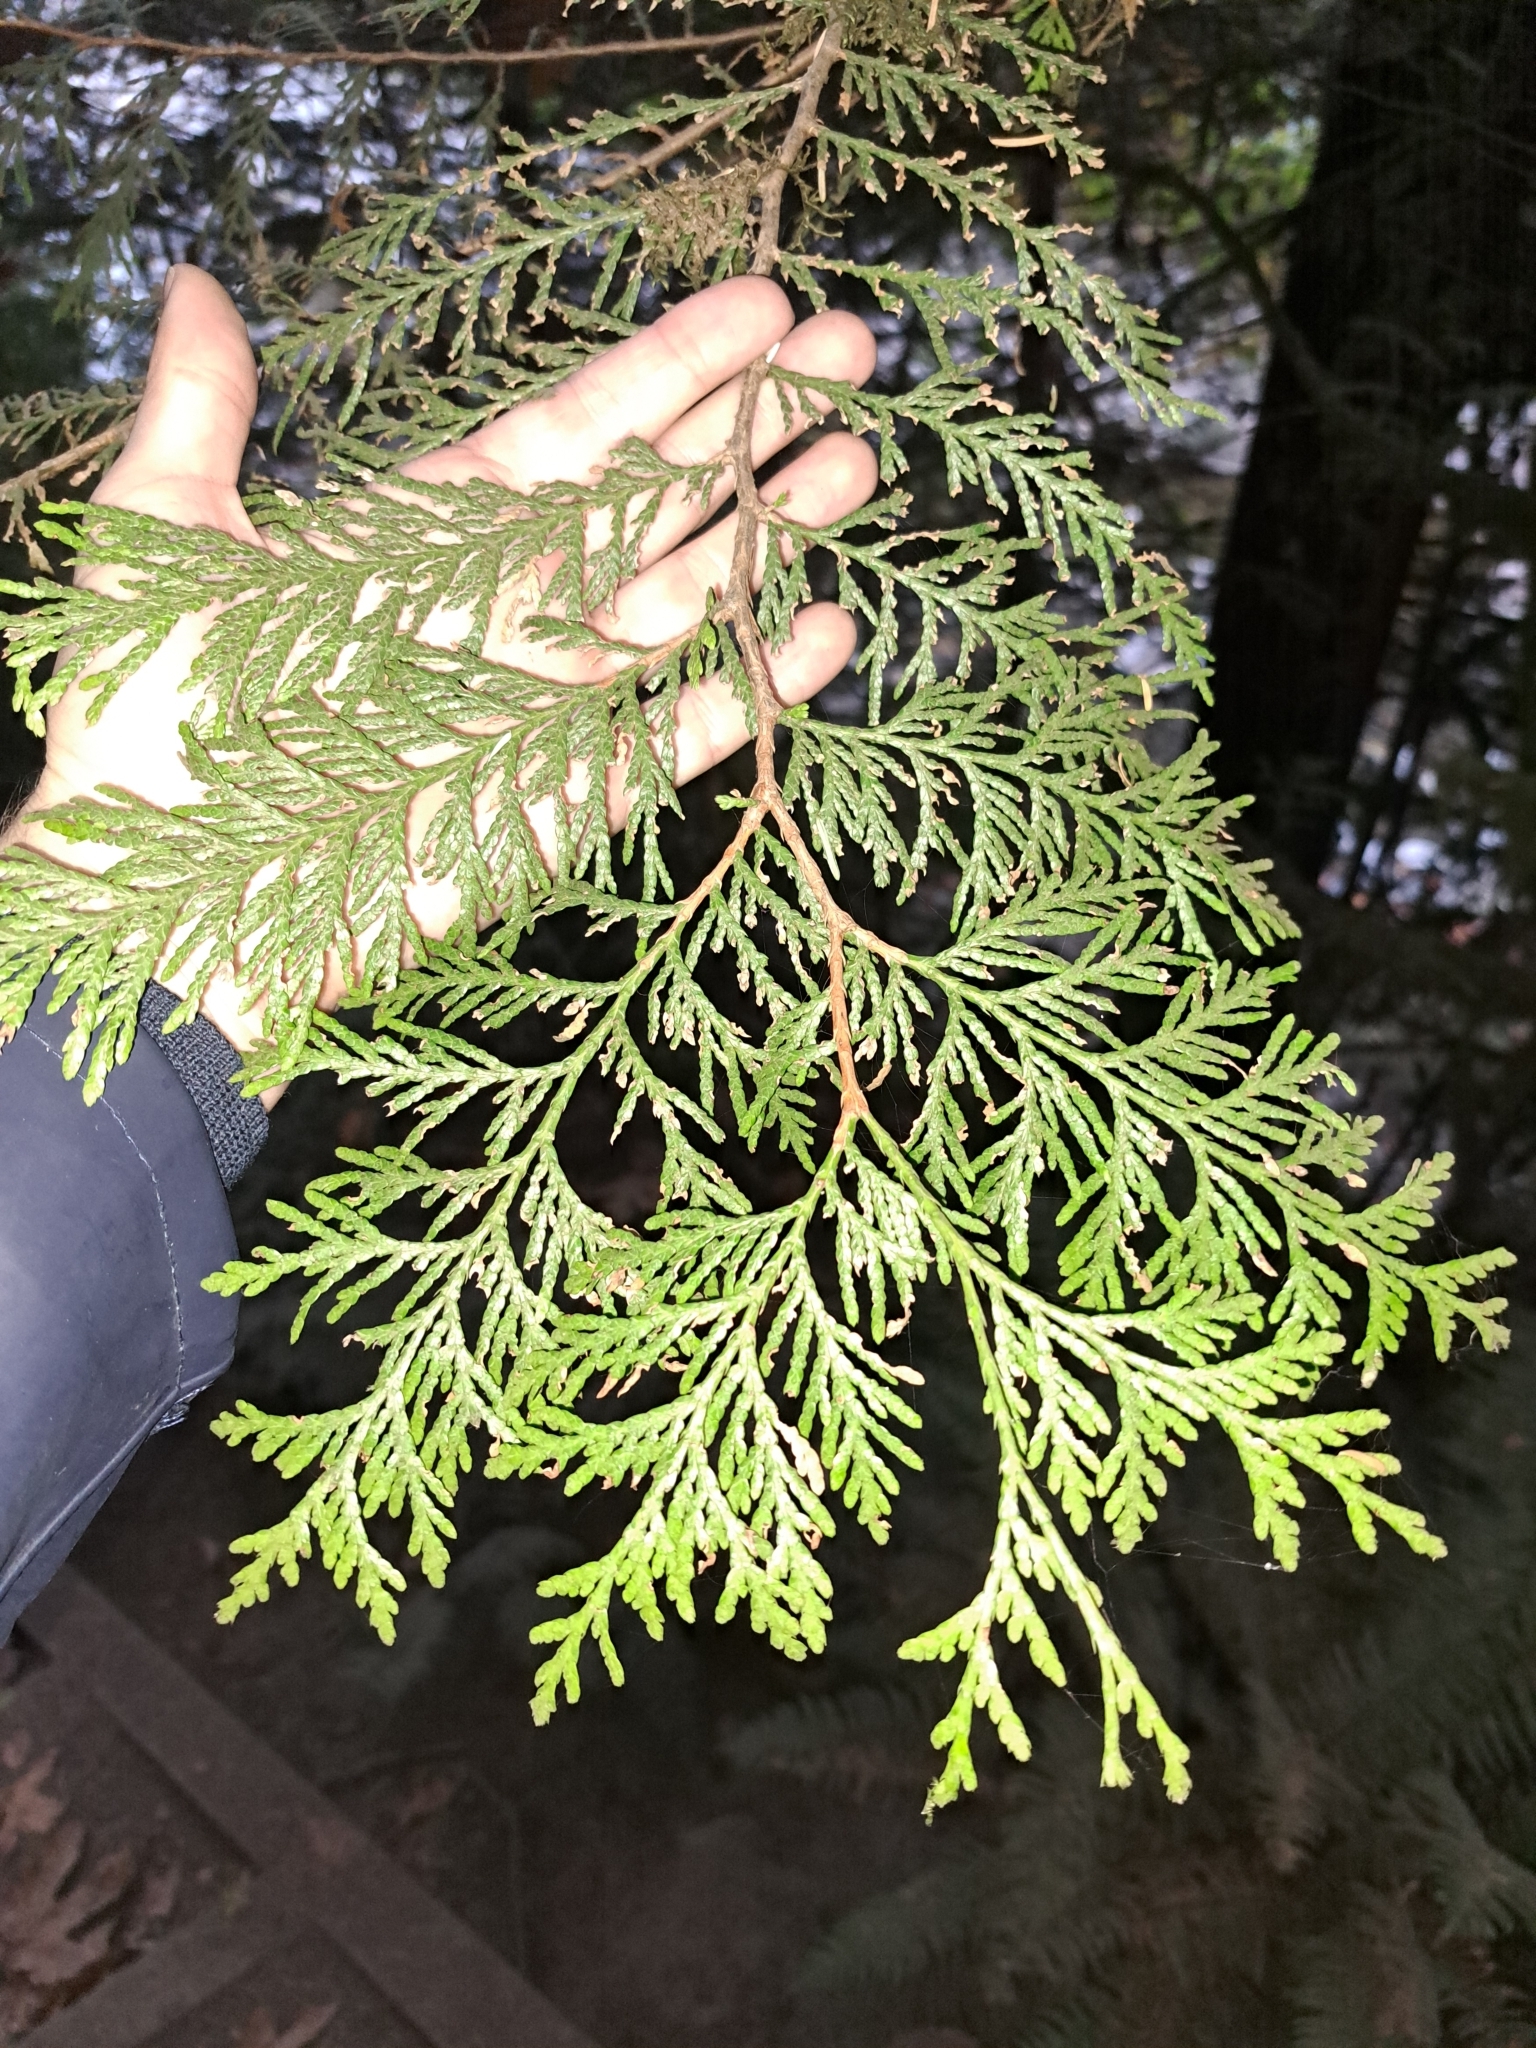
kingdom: Plantae
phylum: Tracheophyta
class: Pinopsida
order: Pinales
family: Cupressaceae
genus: Thuja
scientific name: Thuja plicata
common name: Western red-cedar
